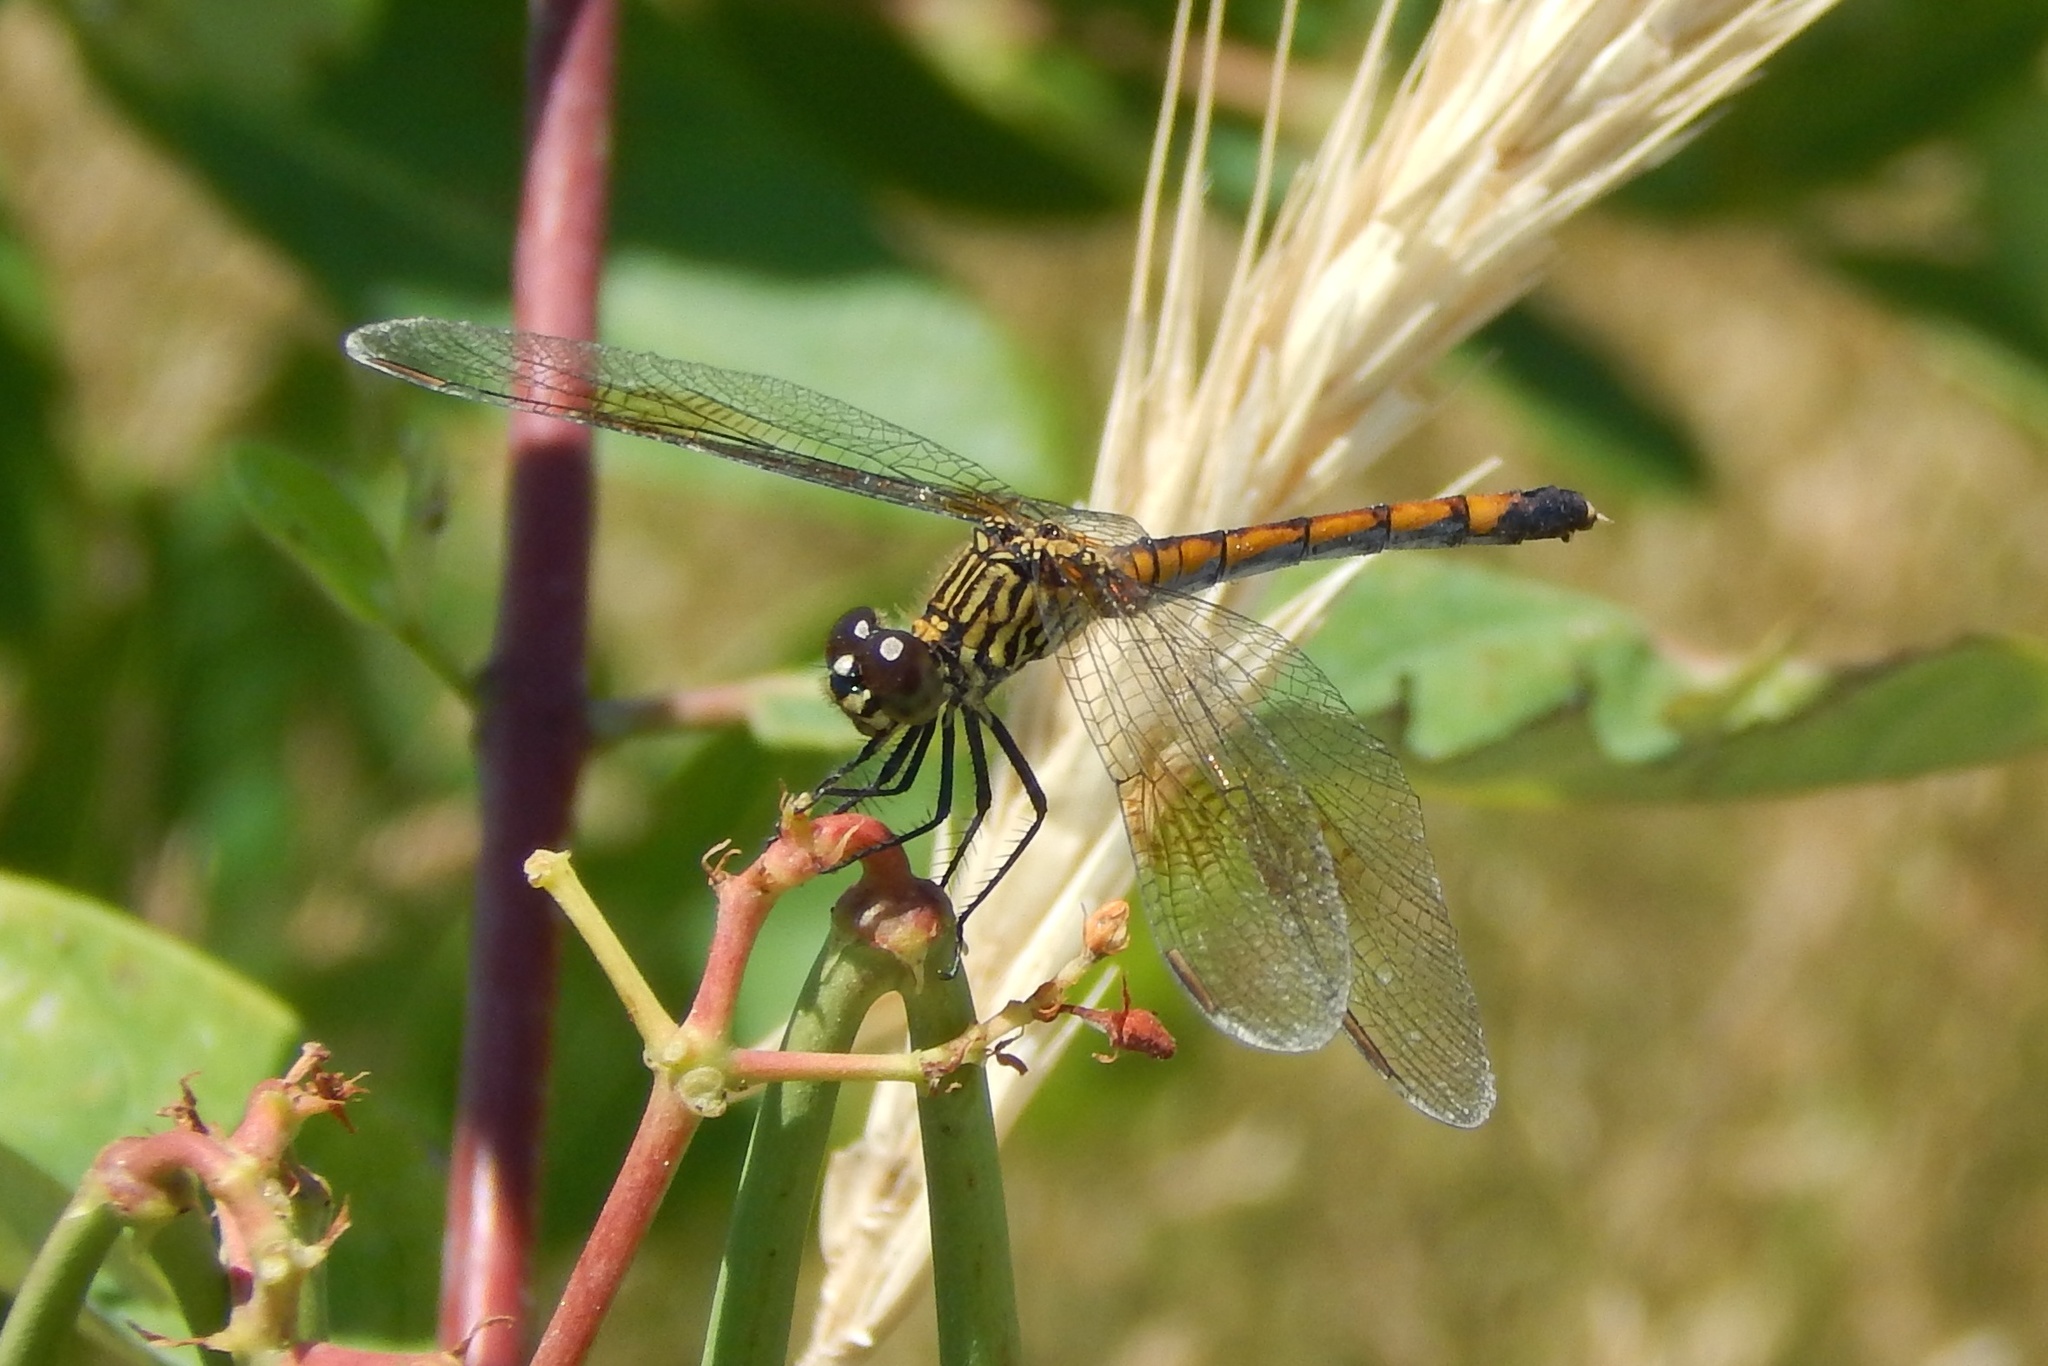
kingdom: Animalia
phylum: Arthropoda
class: Insecta
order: Odonata
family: Libellulidae
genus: Erythrodiplax
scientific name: Erythrodiplax berenice
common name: Seaside dragonlet
